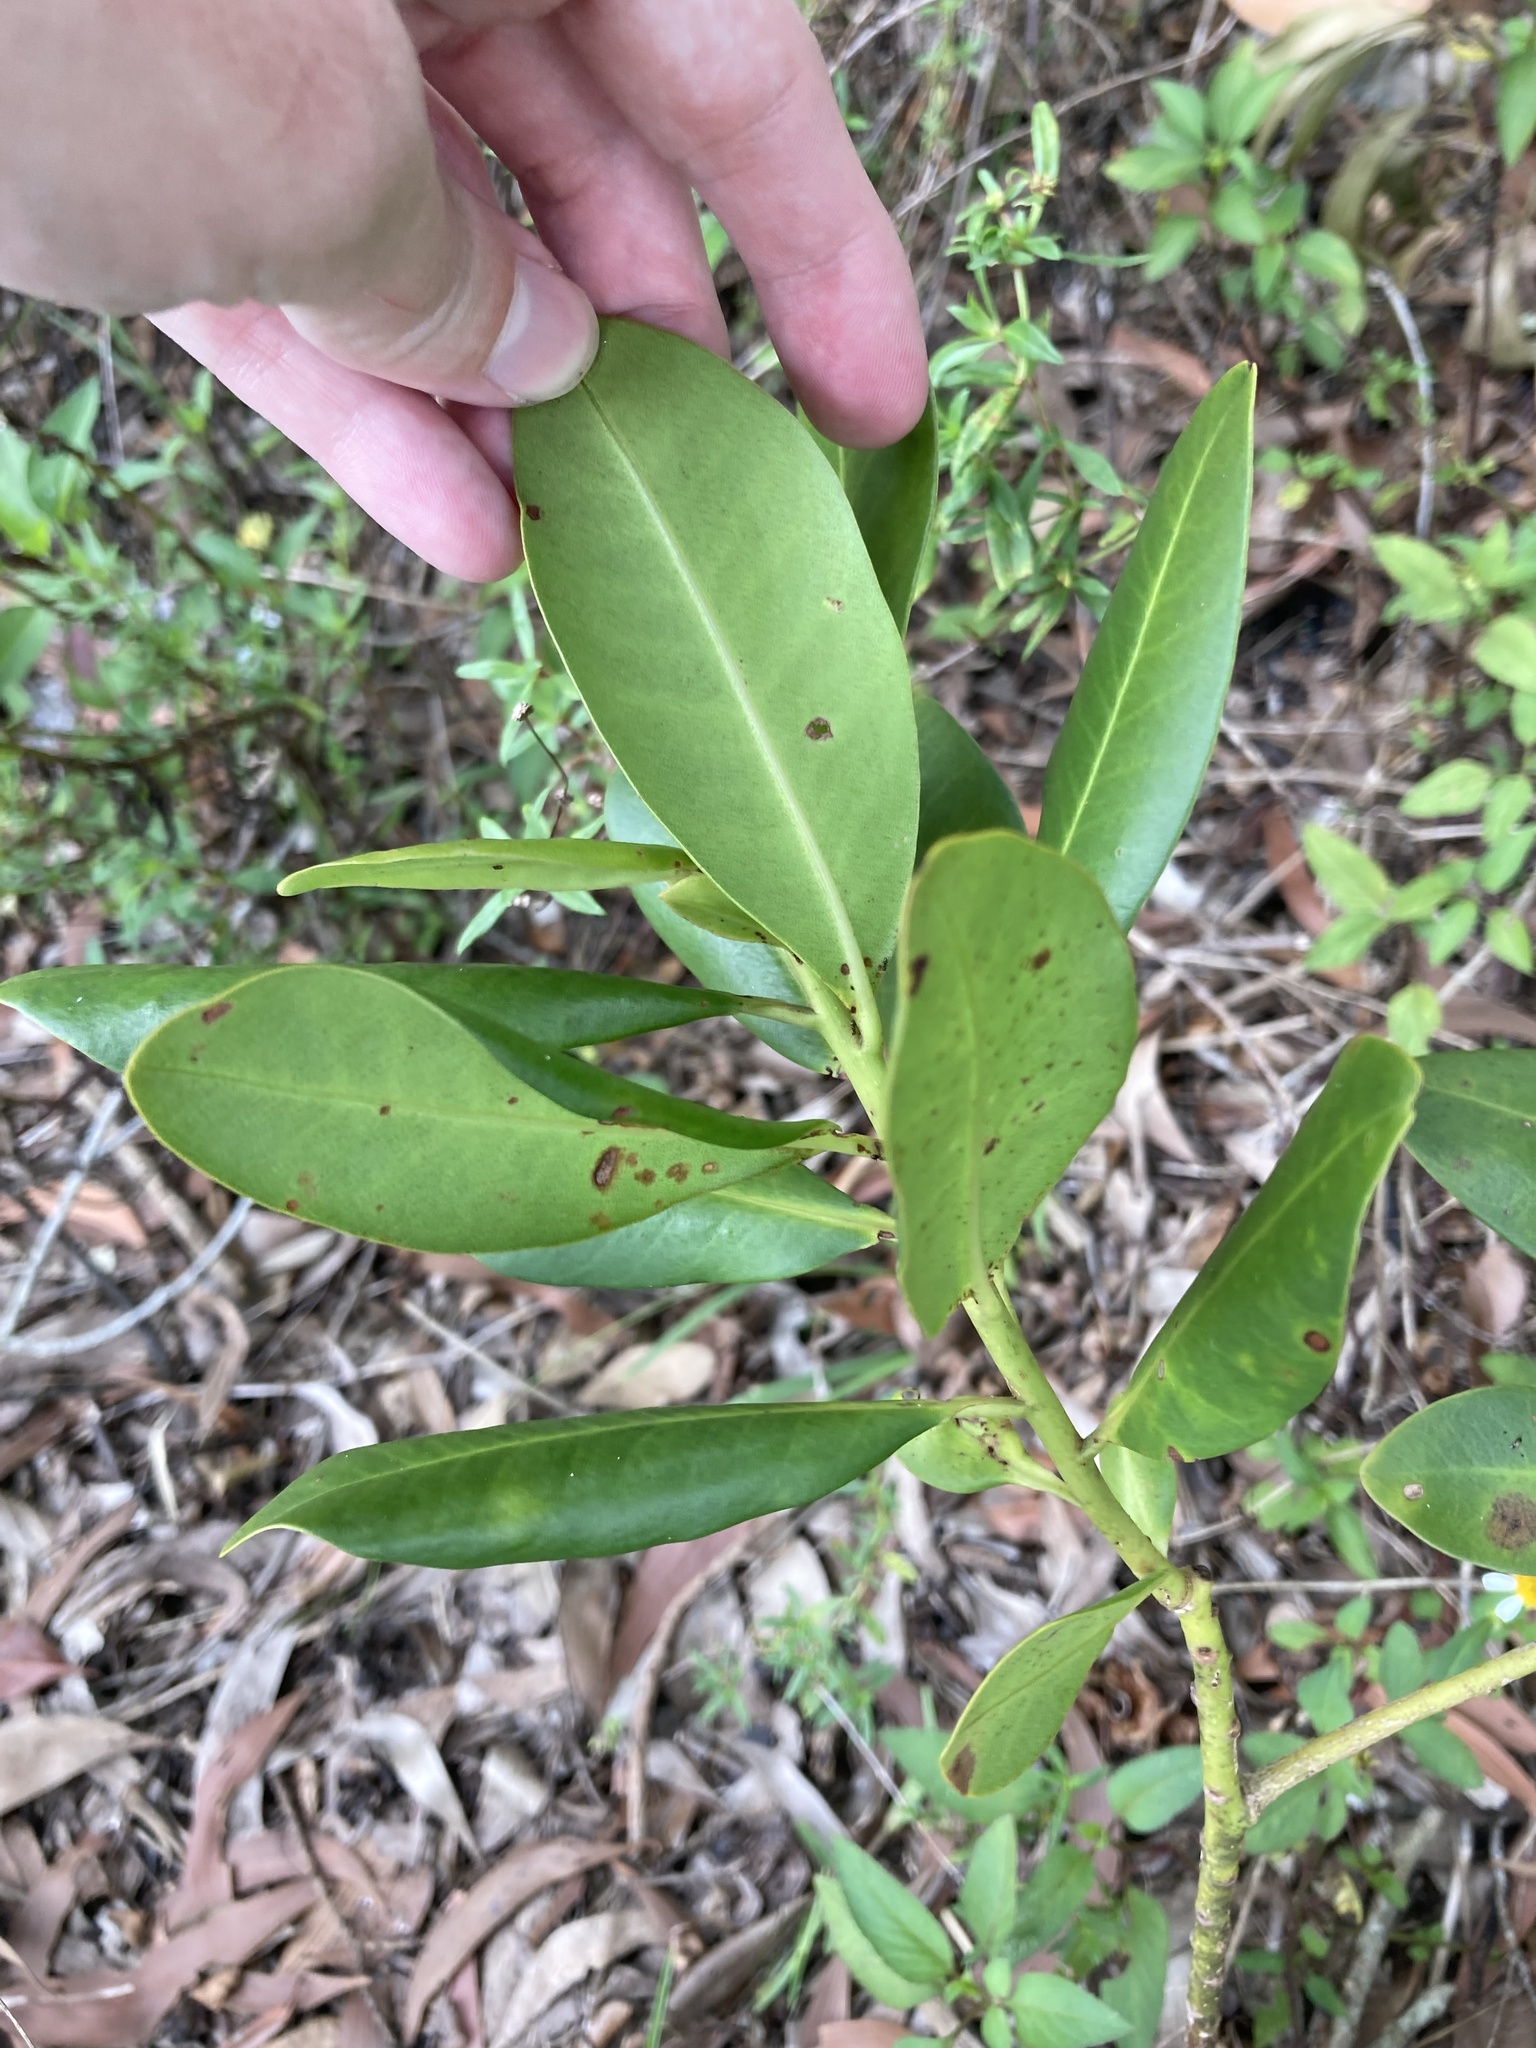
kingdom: Plantae
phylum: Tracheophyta
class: Magnoliopsida
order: Ericales
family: Primulaceae
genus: Myrsine
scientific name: Myrsine floridana
